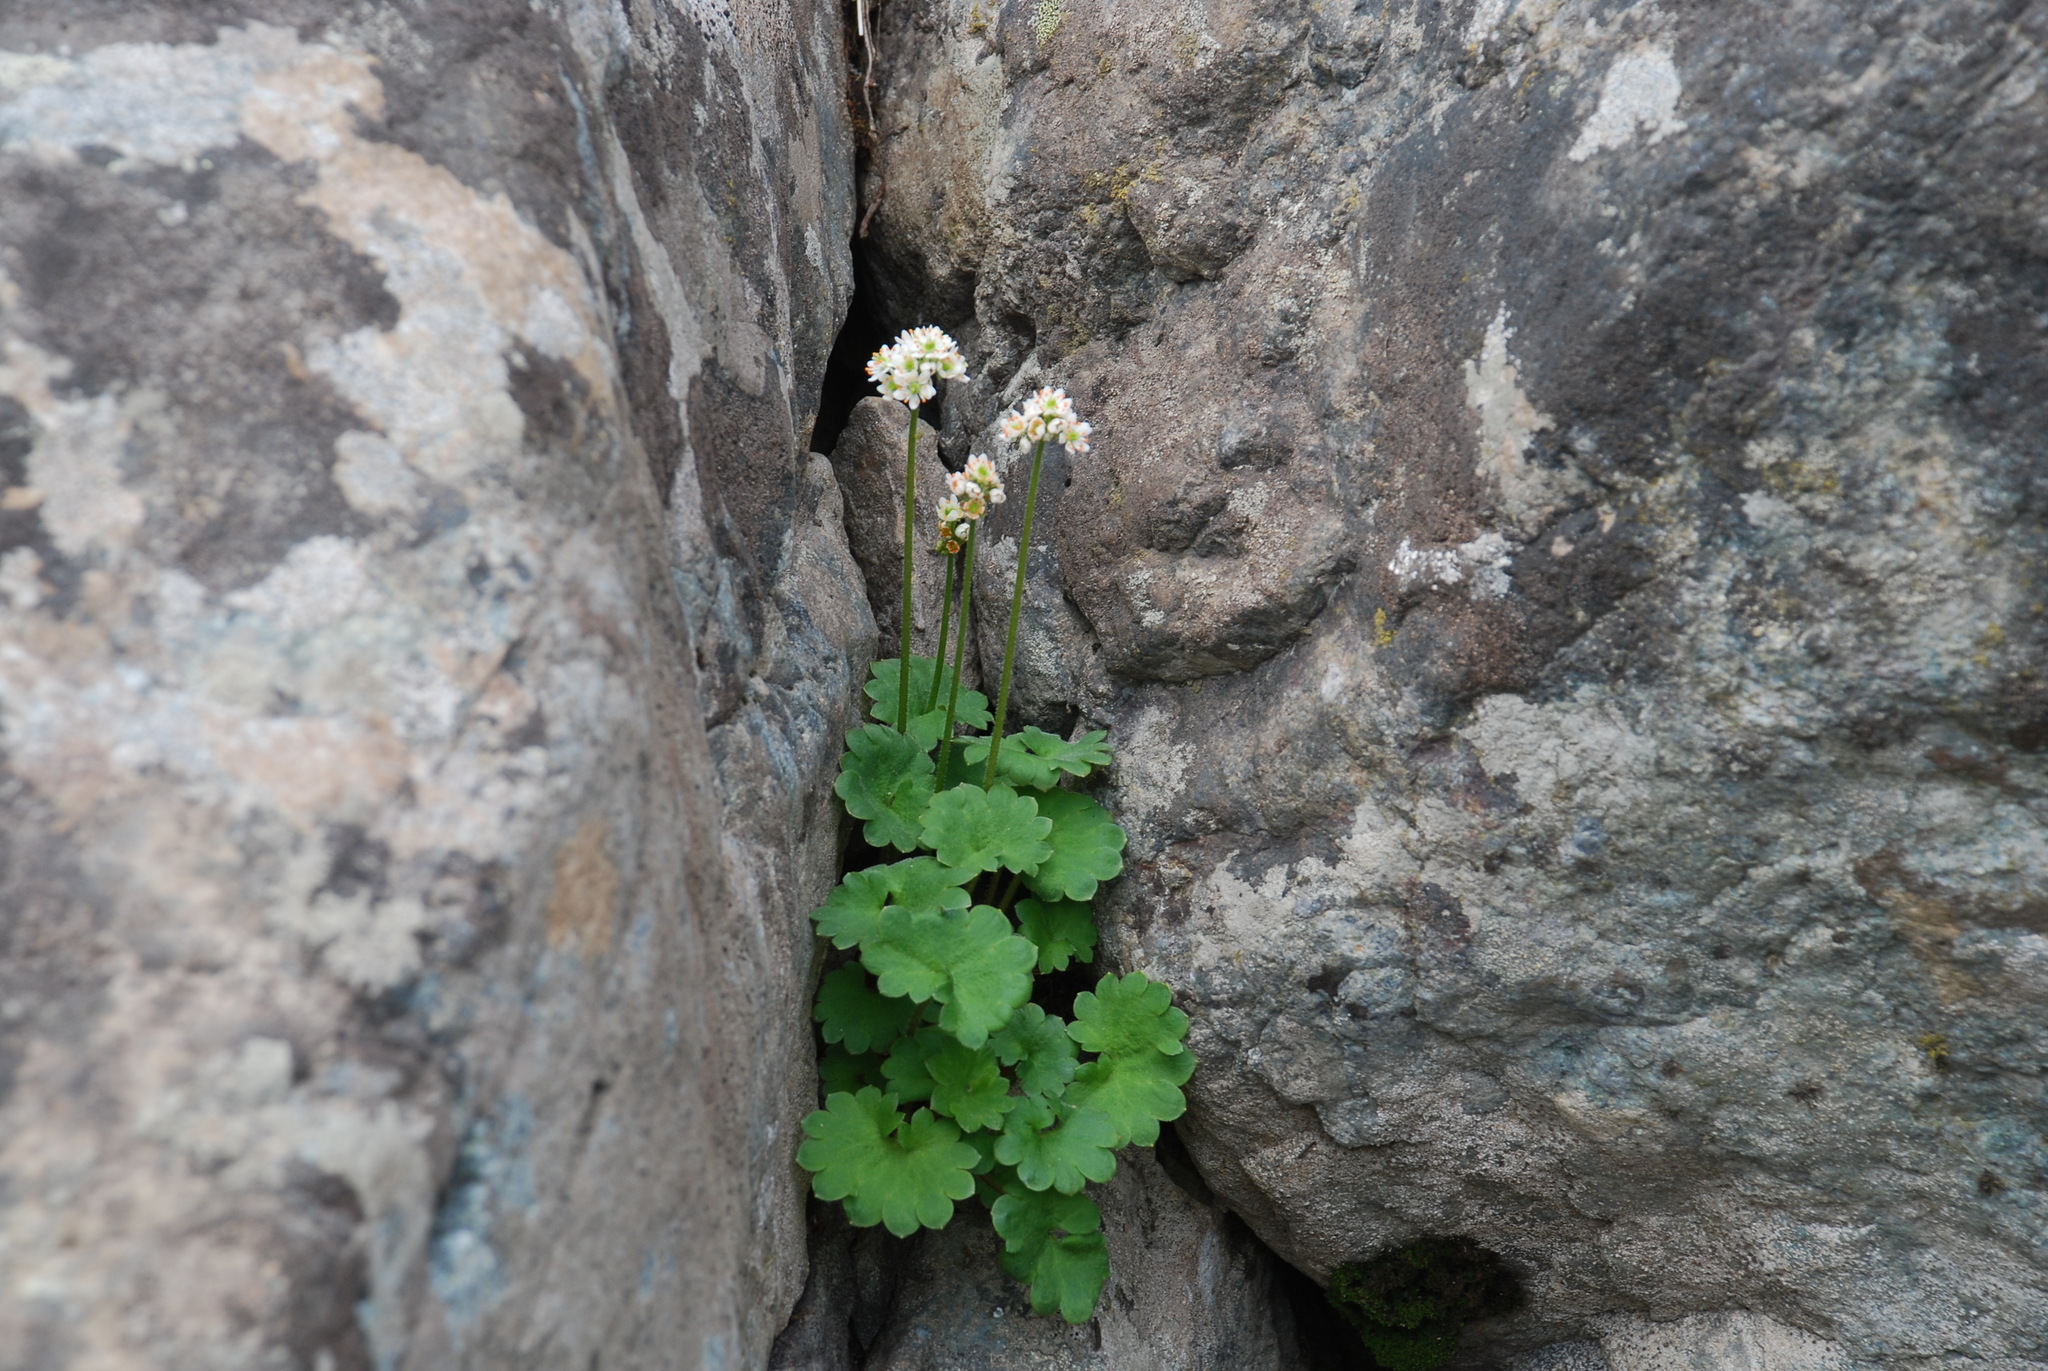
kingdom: Plantae
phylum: Tracheophyta
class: Magnoliopsida
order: Saxifragales
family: Saxifragaceae
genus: Micranthes
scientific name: Micranthes nelsoniana
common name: Nelson's saxifrage
